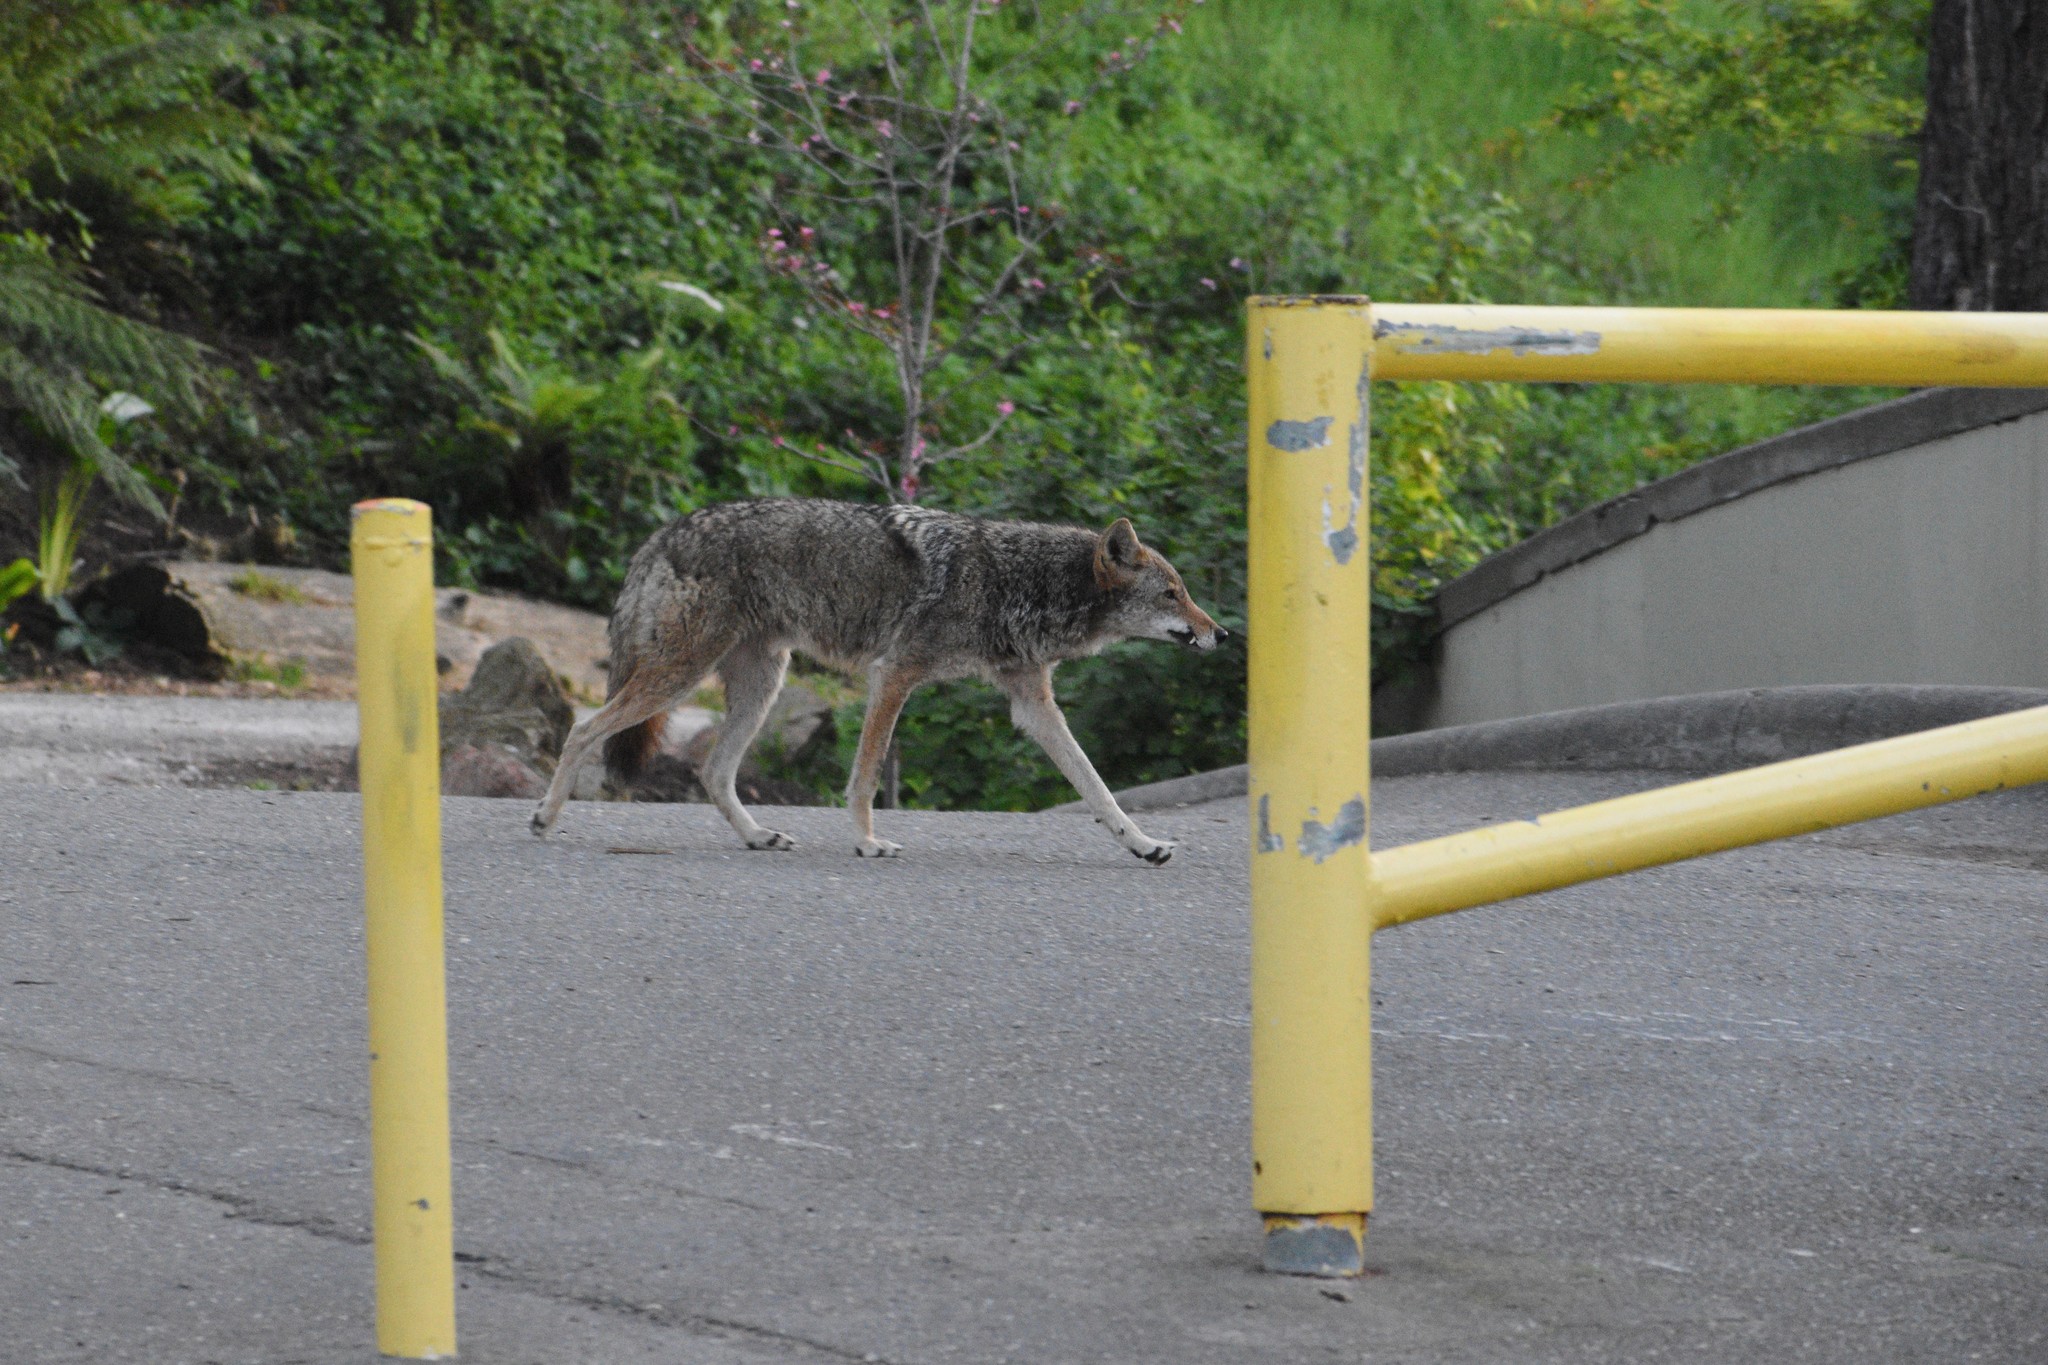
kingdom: Animalia
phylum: Chordata
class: Mammalia
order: Carnivora
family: Canidae
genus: Canis
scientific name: Canis latrans
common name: Coyote
